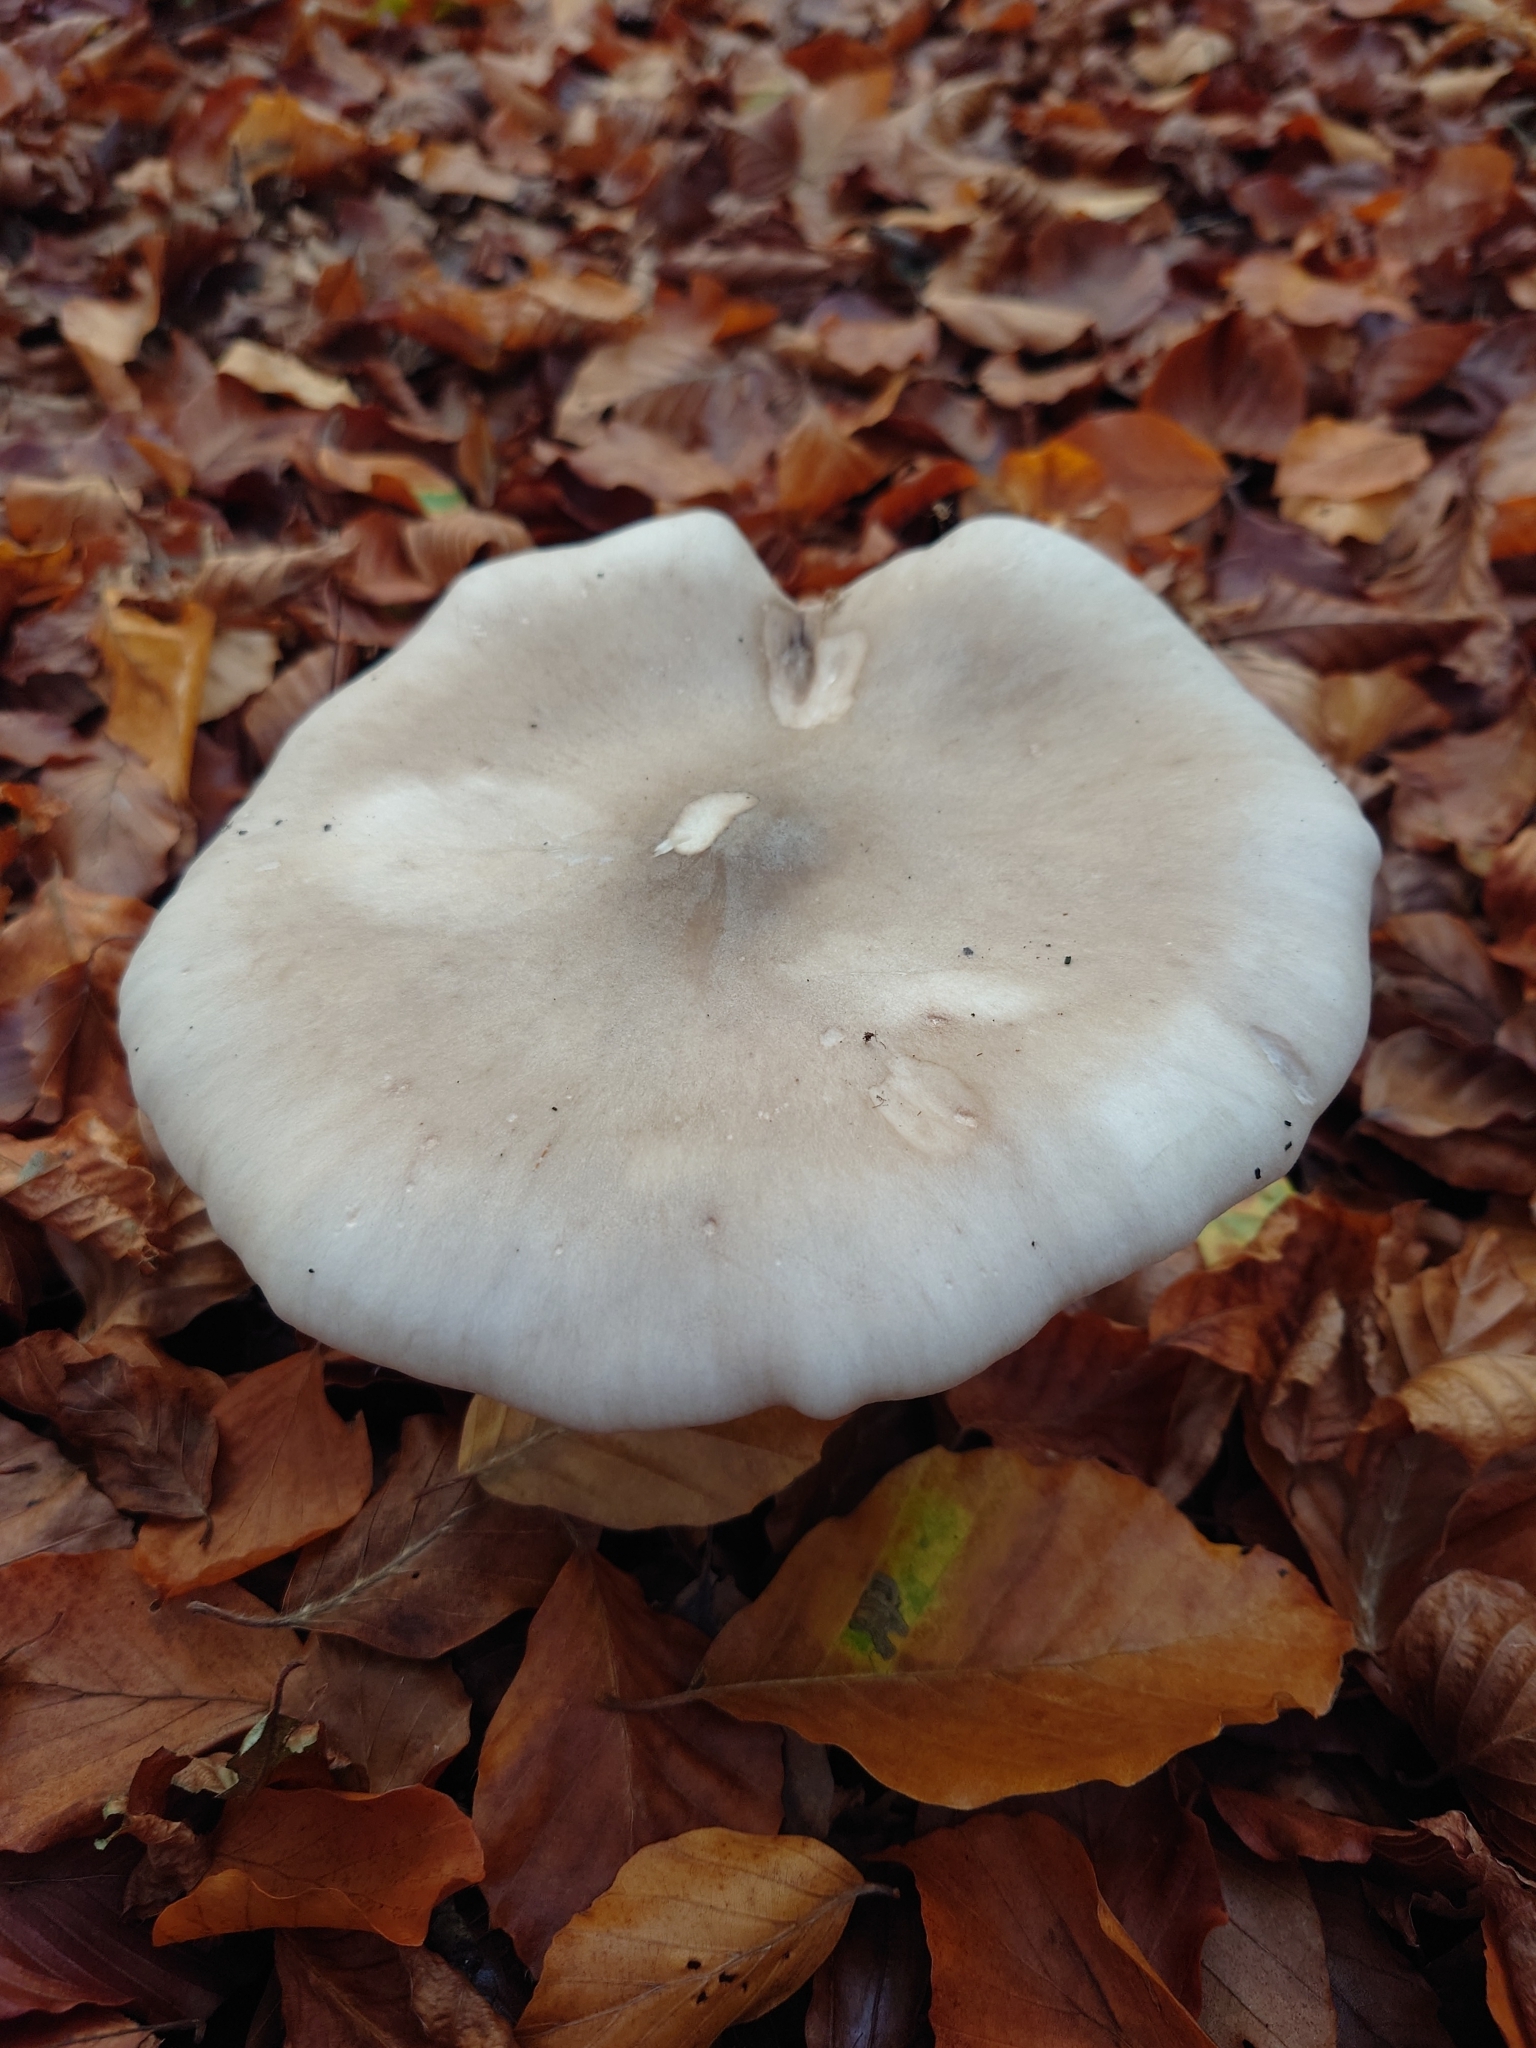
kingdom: Fungi
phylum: Basidiomycota
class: Agaricomycetes
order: Agaricales
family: Tricholomataceae
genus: Clitocybe
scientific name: Clitocybe nebularis
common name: Clouded agaric
